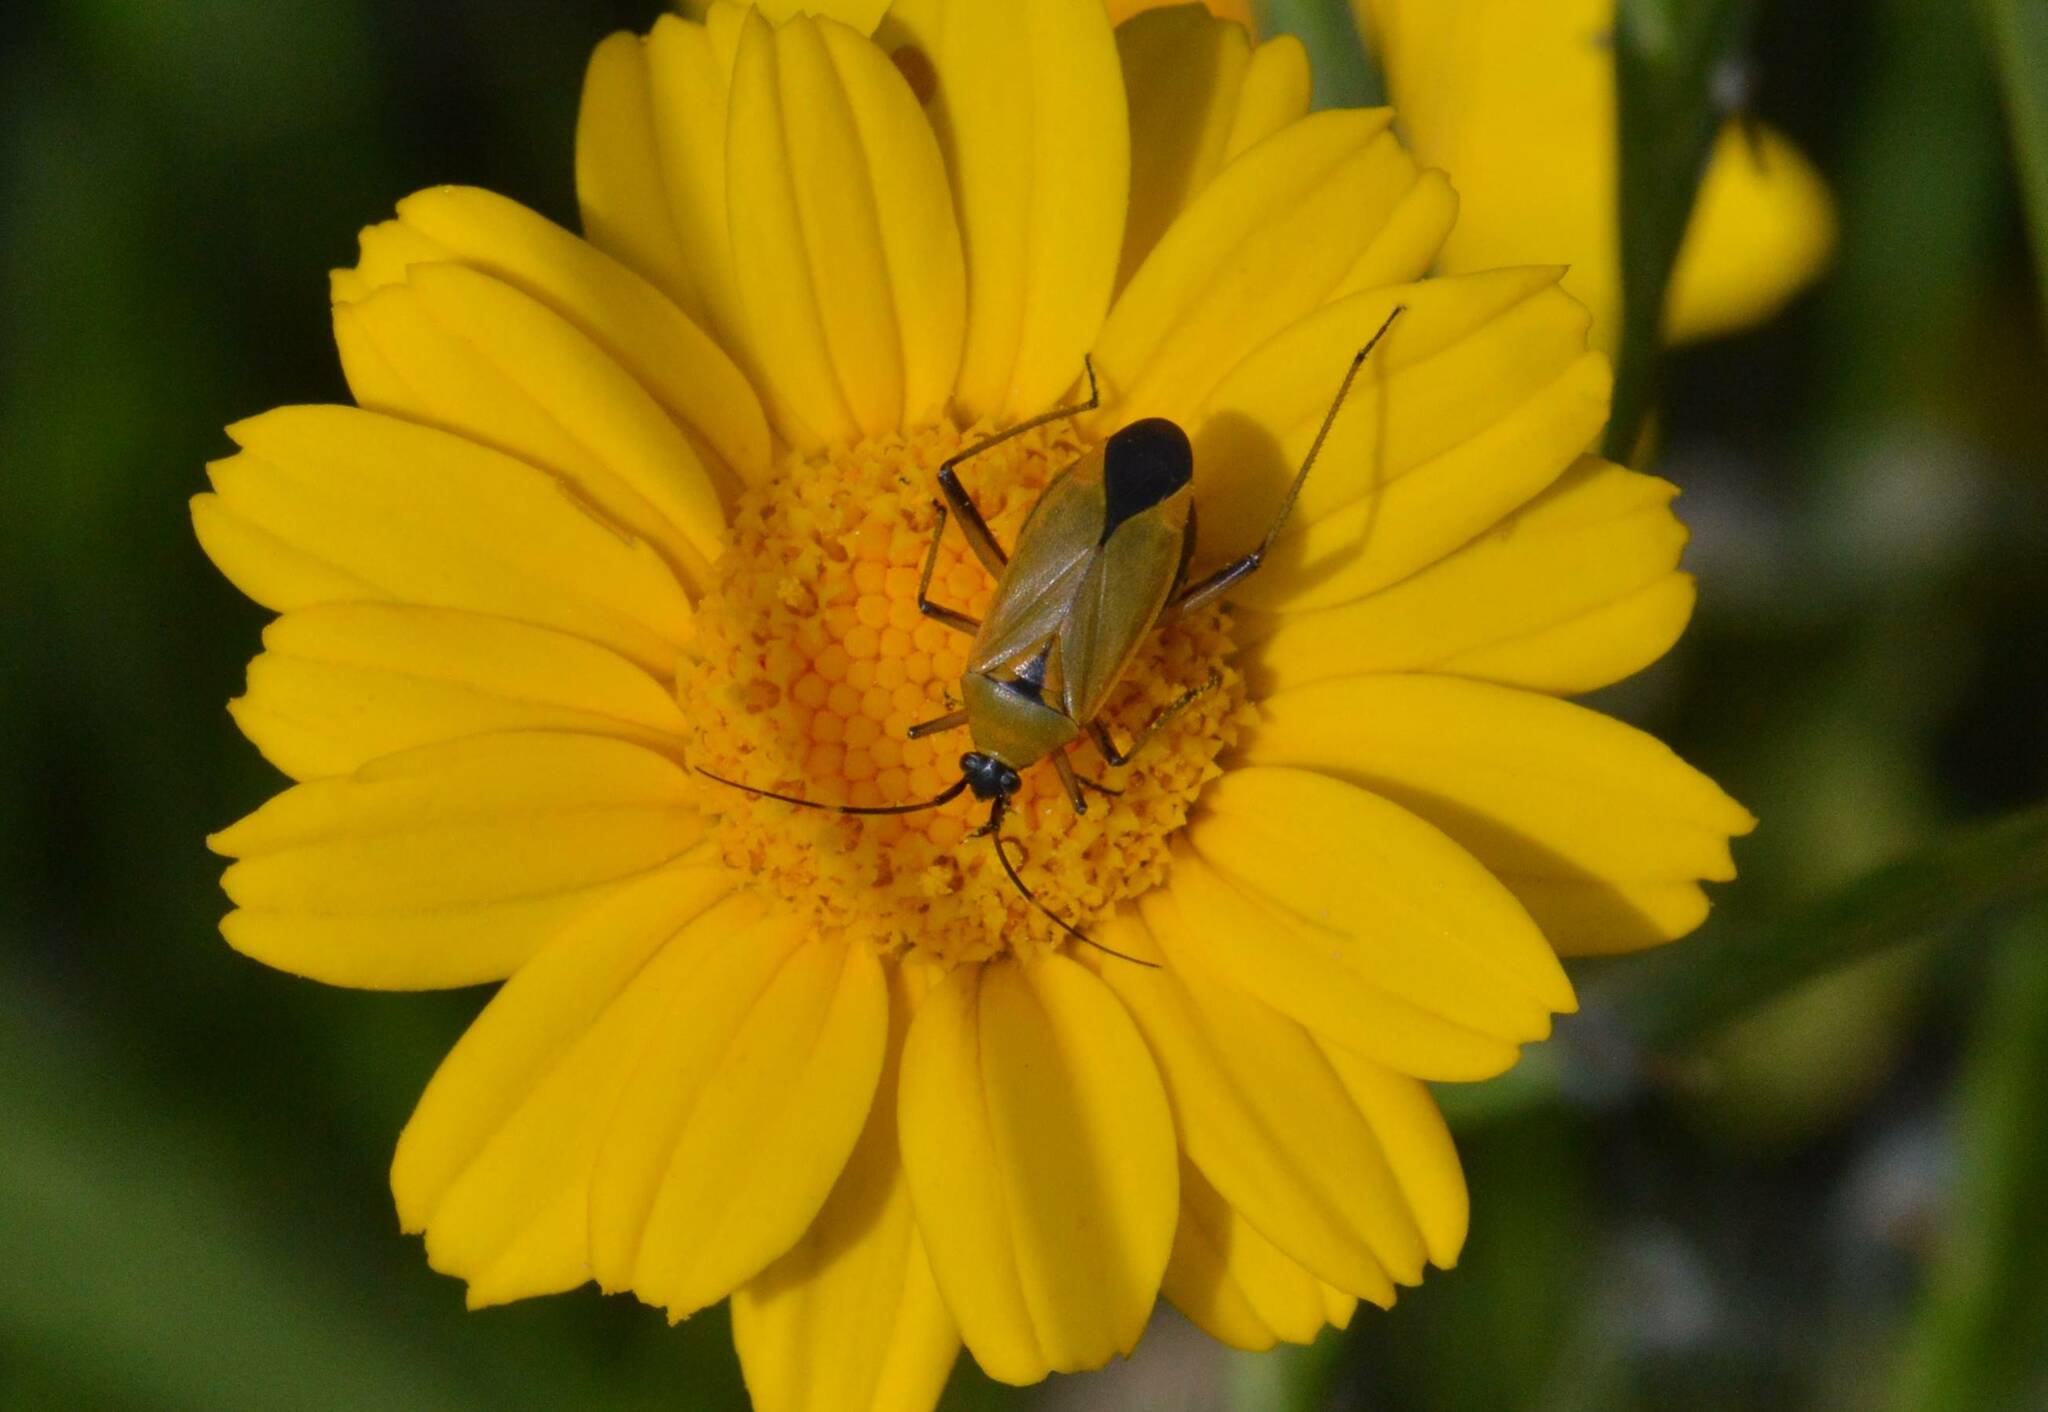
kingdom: Animalia
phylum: Arthropoda
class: Insecta
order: Hemiptera
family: Miridae
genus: Calocoris
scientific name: Calocoris nemoralis
